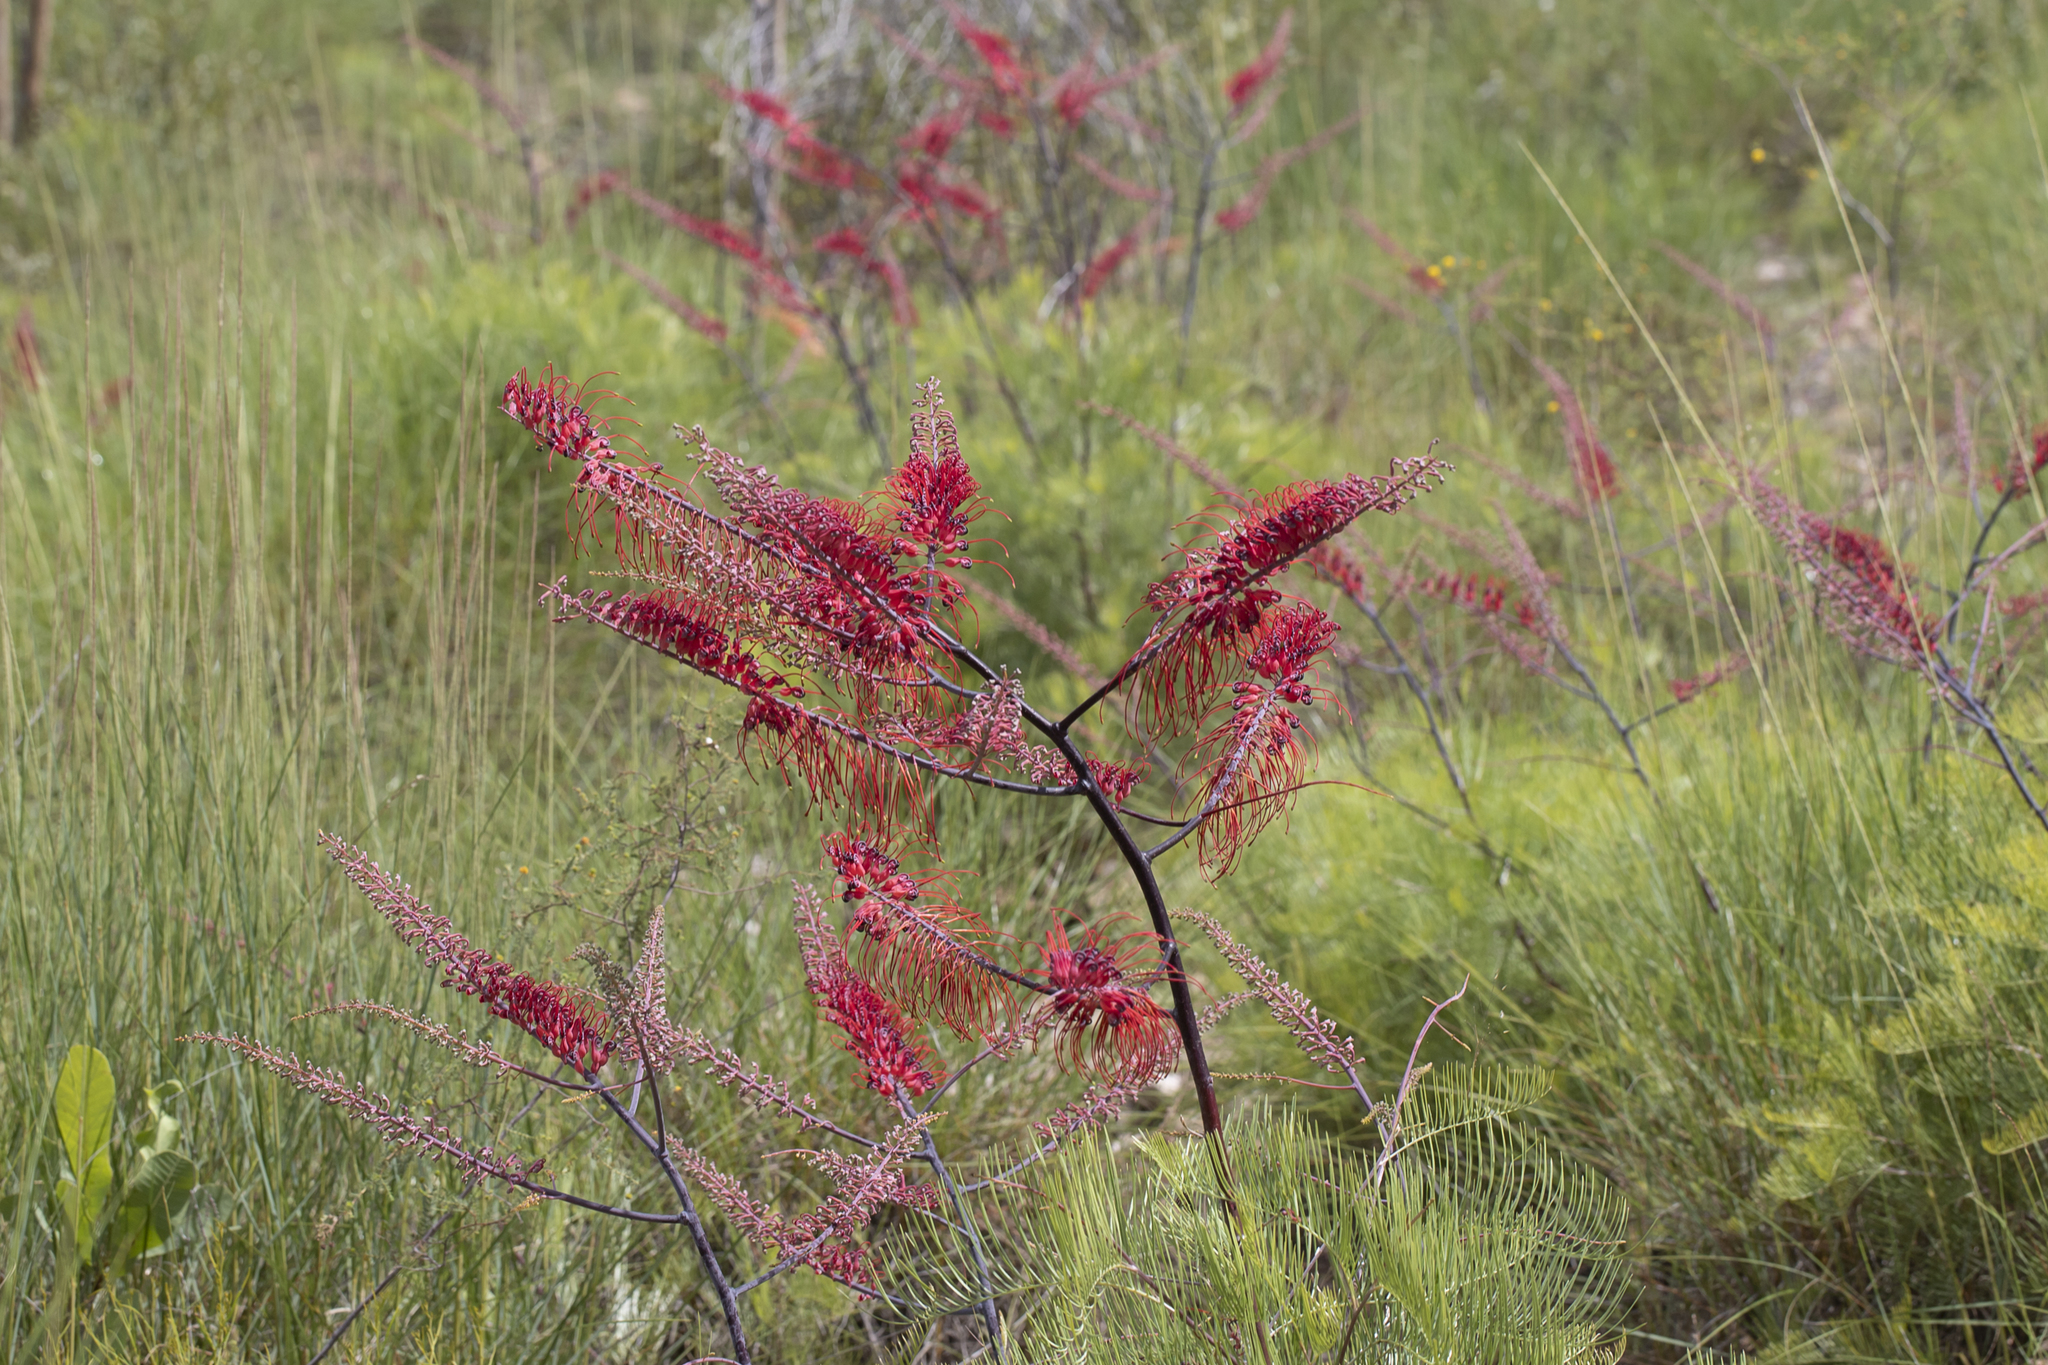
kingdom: Plantae
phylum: Tracheophyta
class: Magnoliopsida
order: Proteales
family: Proteaceae
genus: Grevillea
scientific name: Grevillea dryandri
